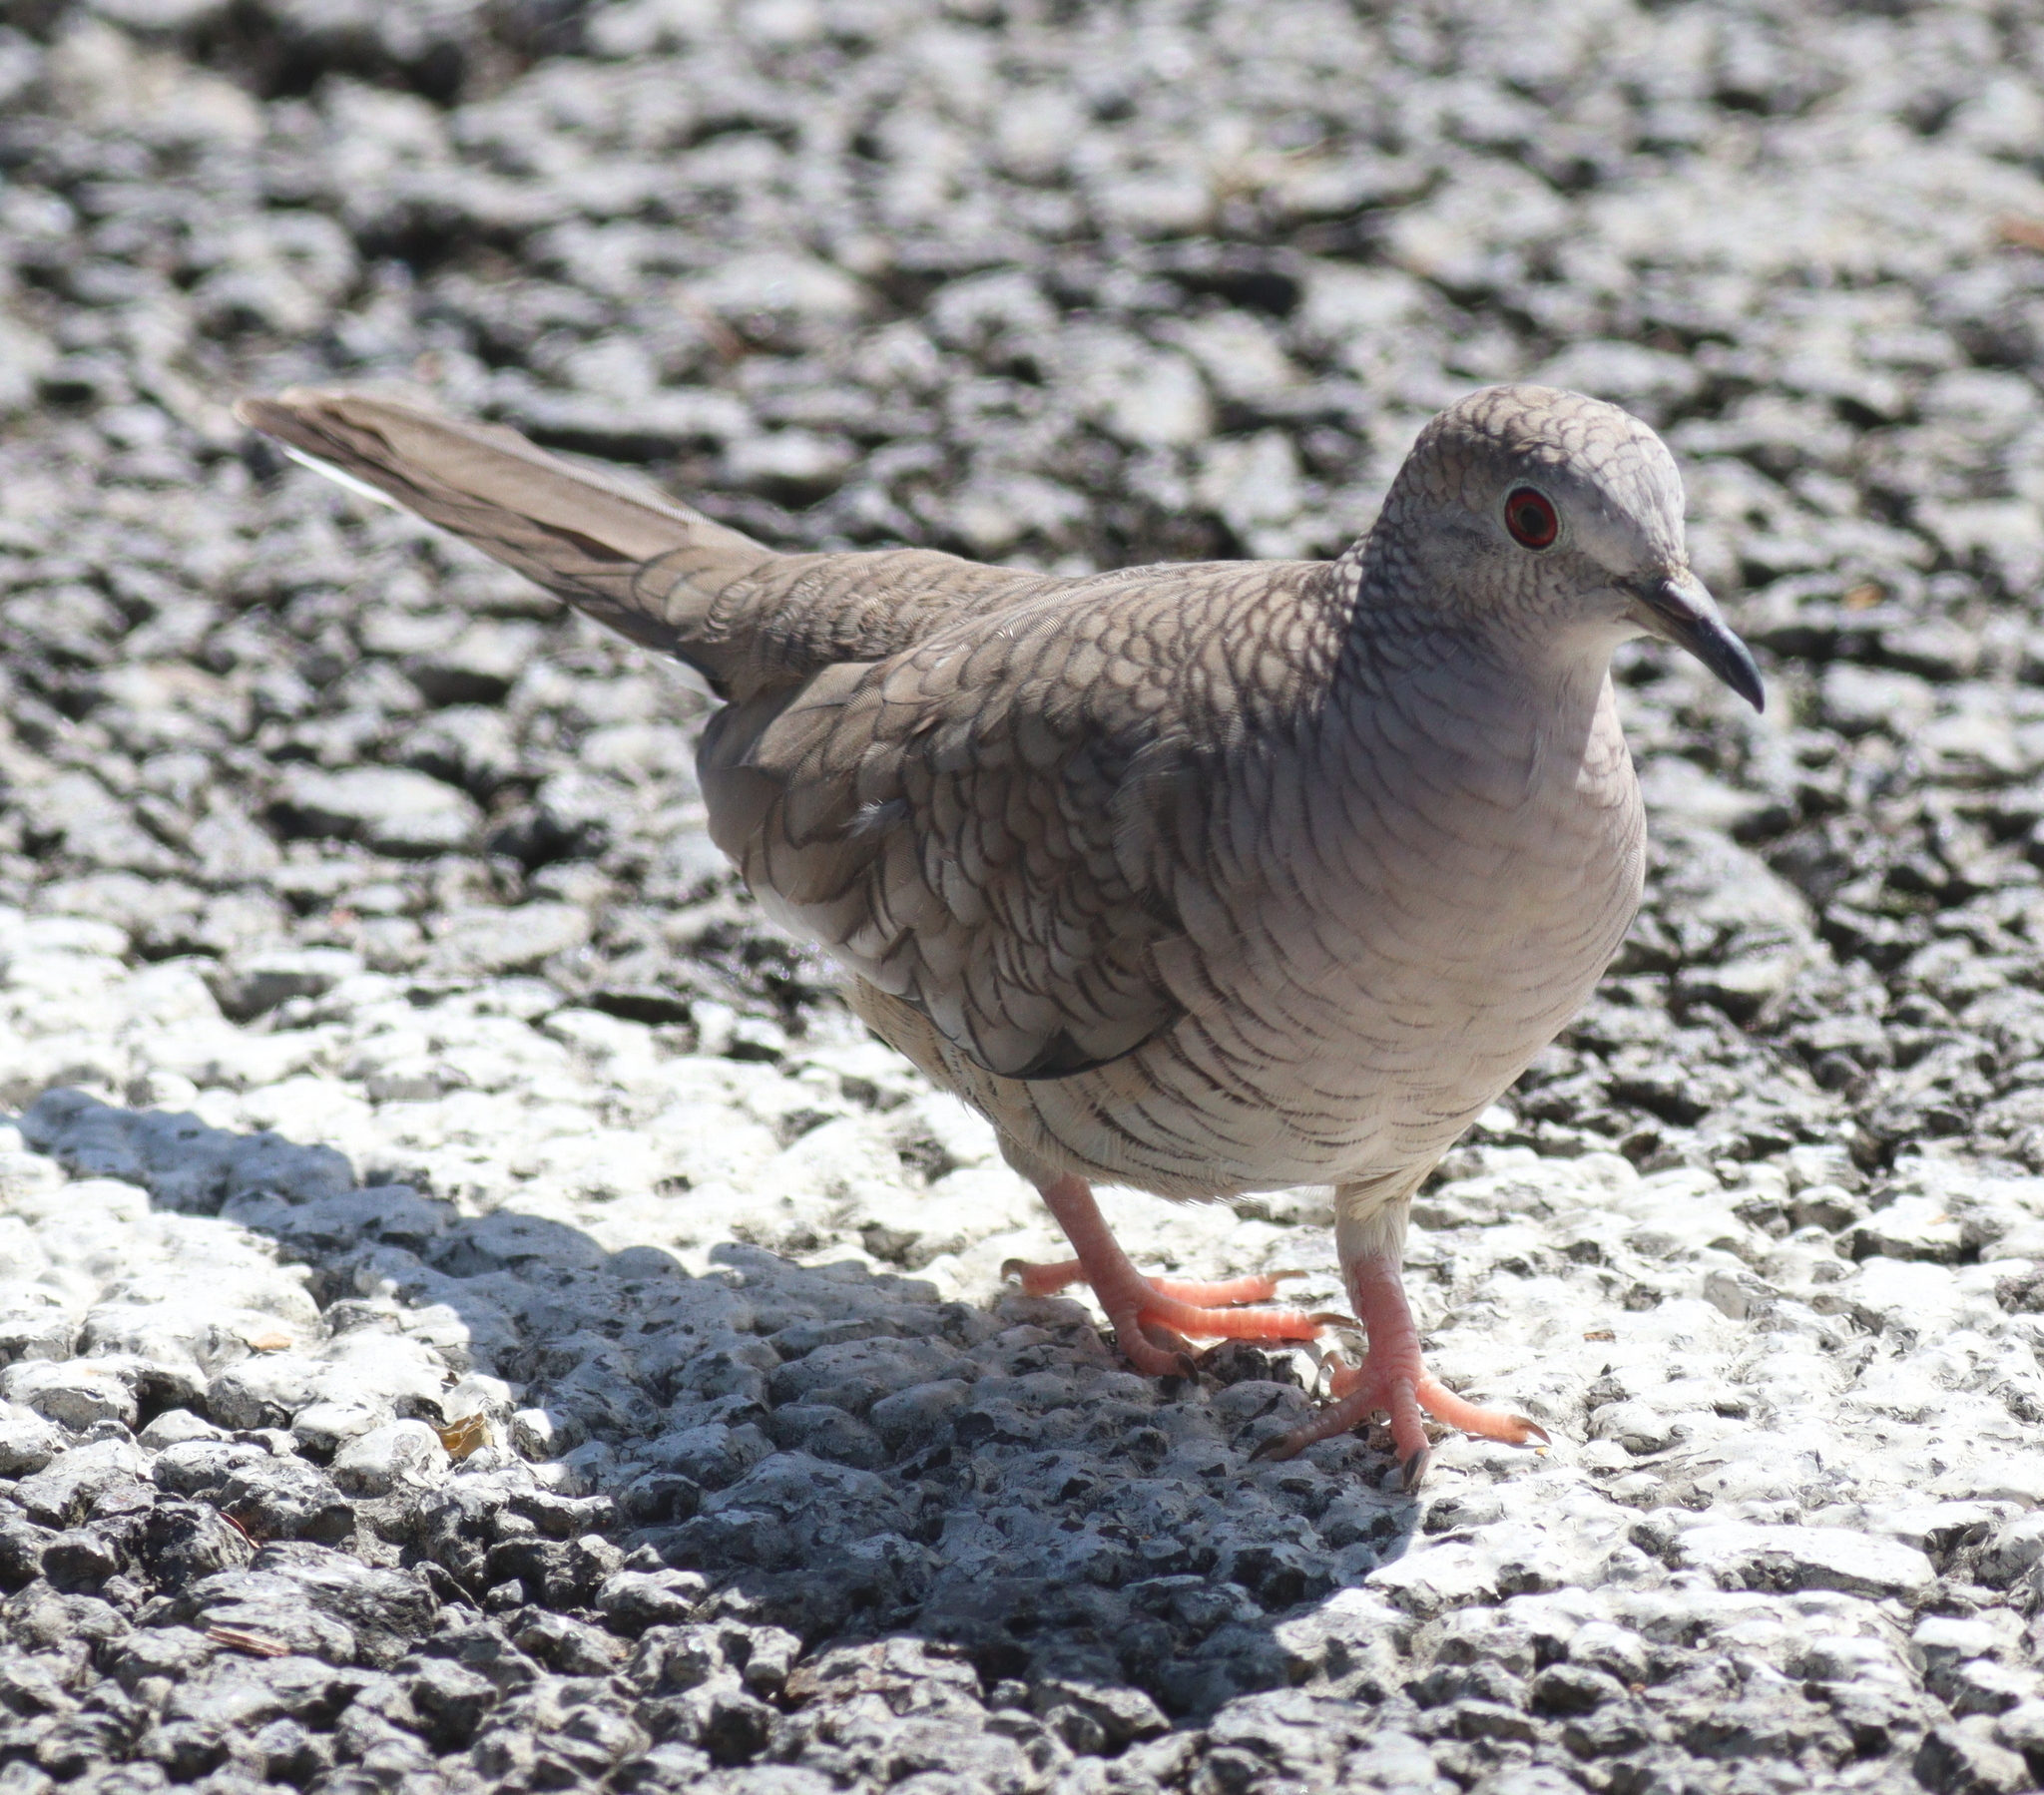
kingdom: Animalia
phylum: Chordata
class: Aves
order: Columbiformes
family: Columbidae
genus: Columbina
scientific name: Columbina inca
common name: Inca dove
